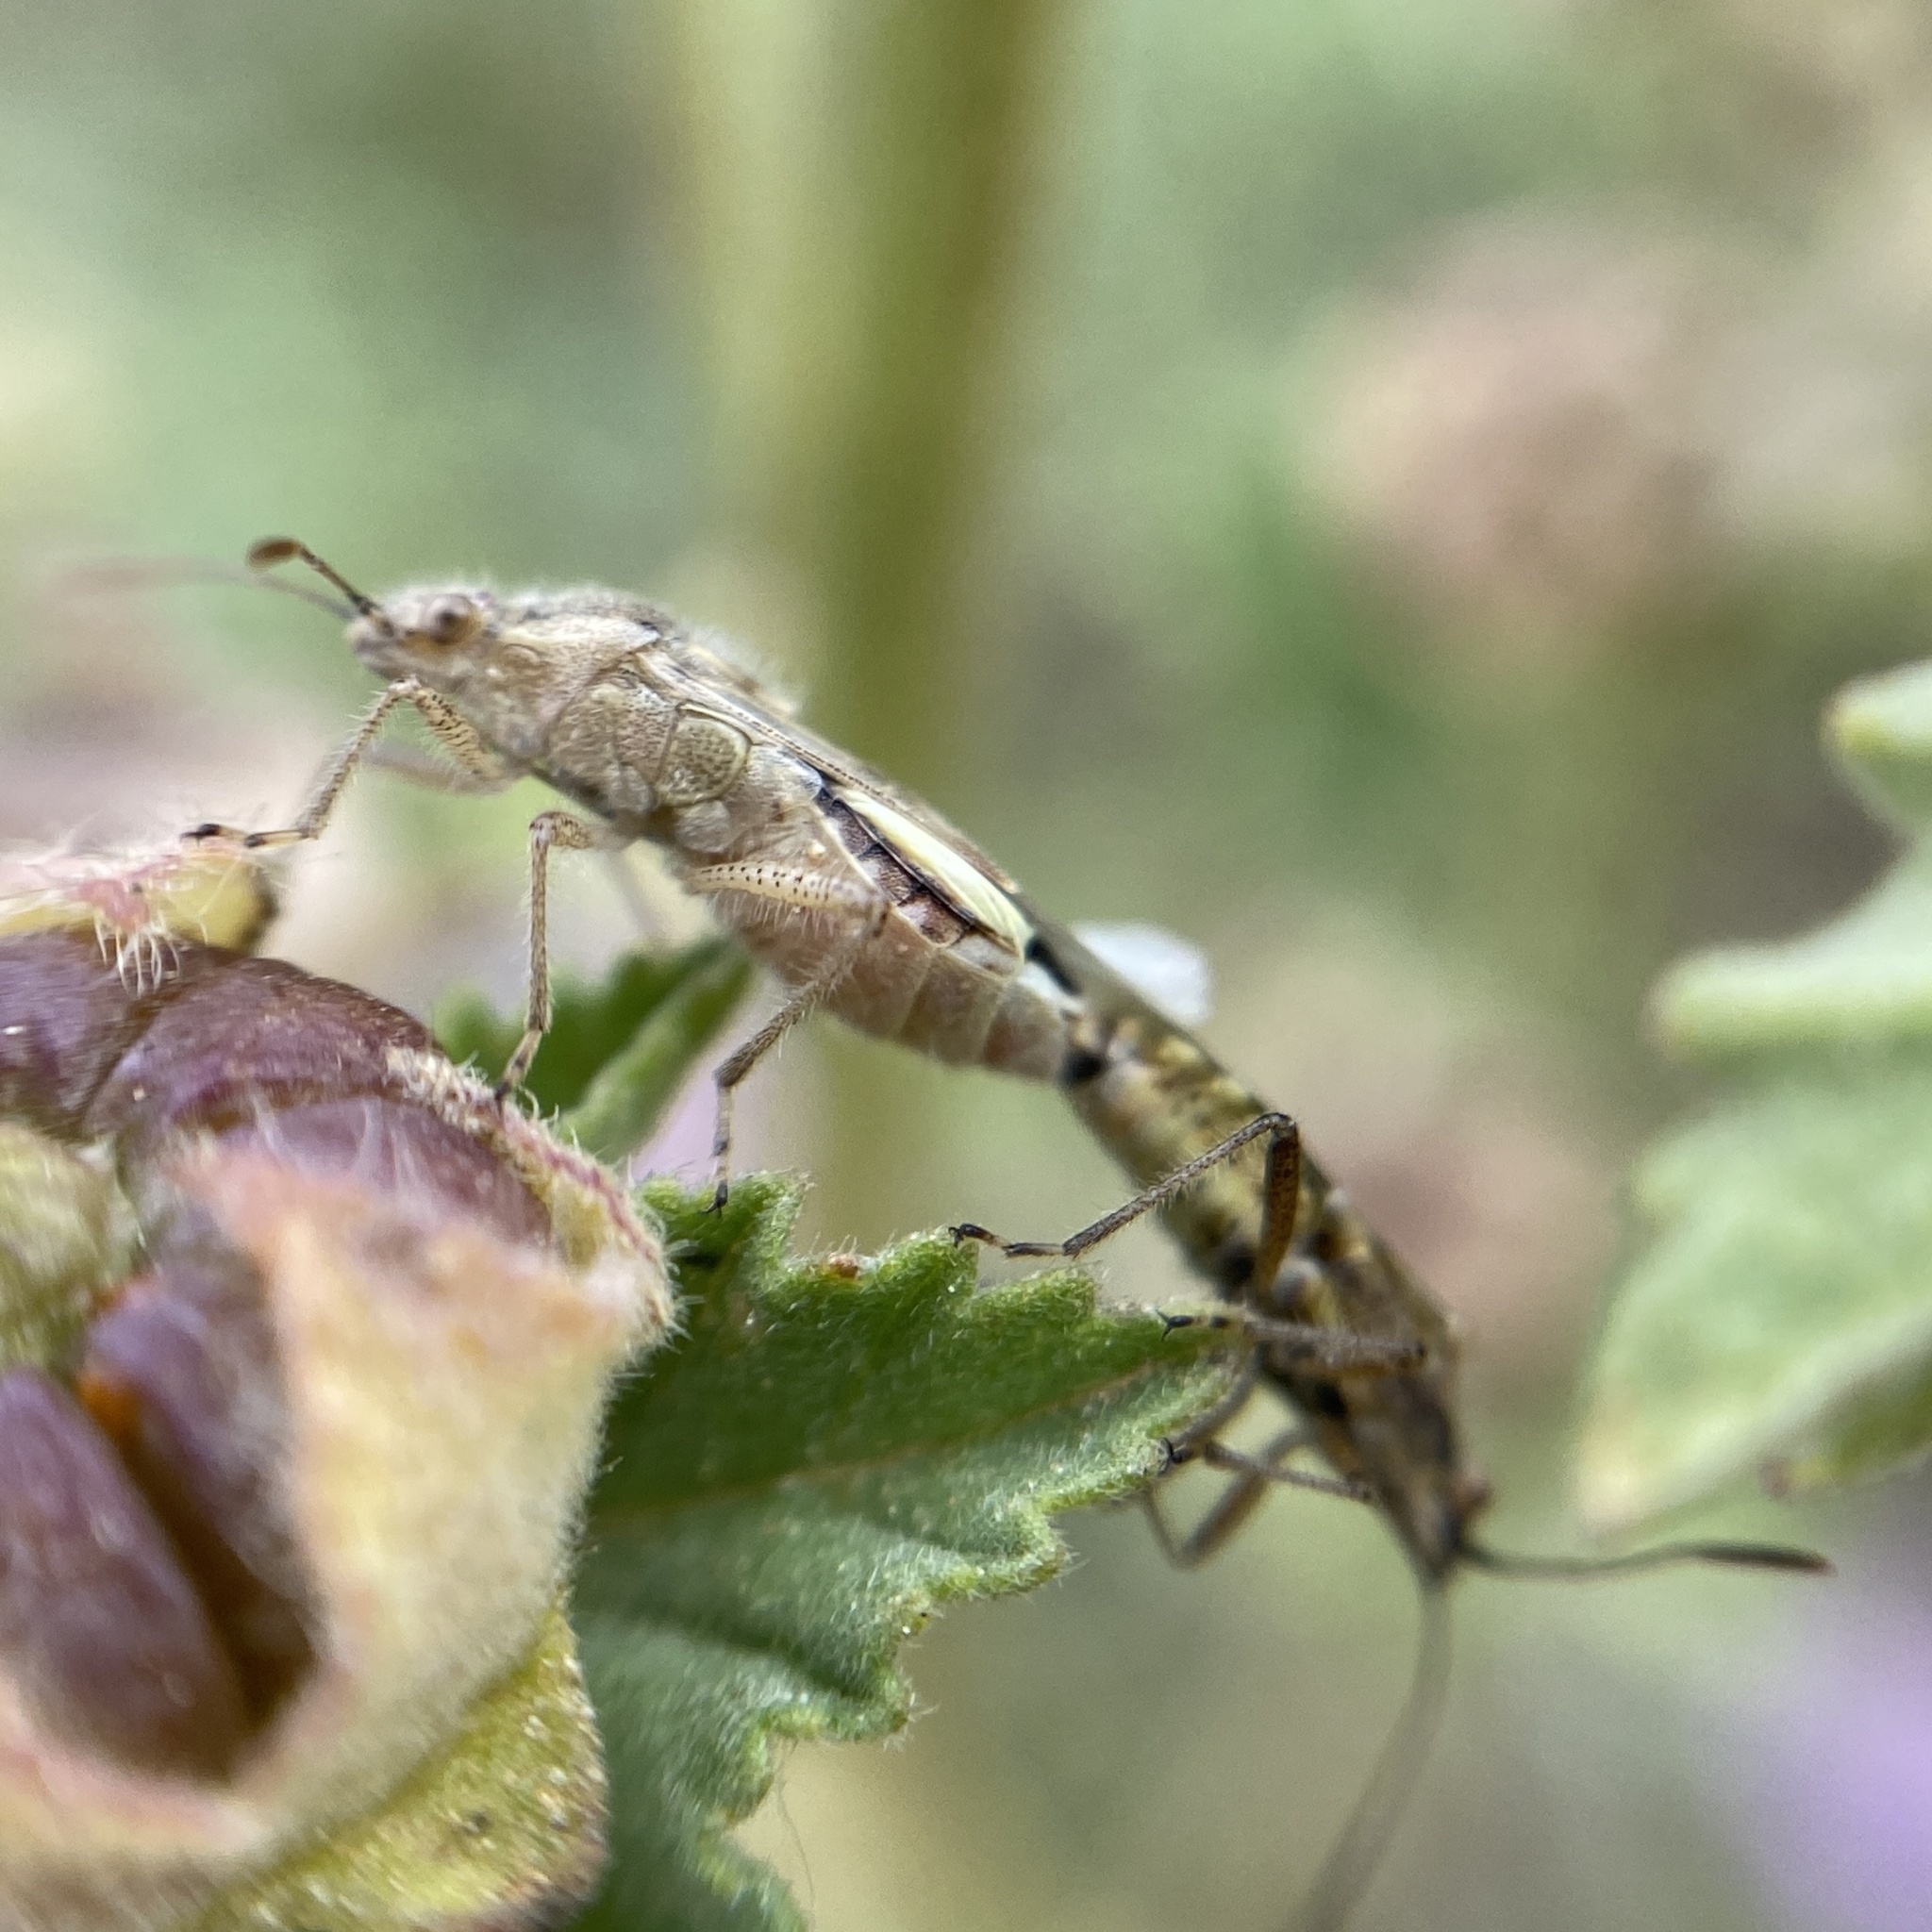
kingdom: Animalia
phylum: Arthropoda
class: Insecta
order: Hemiptera
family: Rhopalidae
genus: Liorhyssus
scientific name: Liorhyssus hyalinus
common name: Scentless plant bug
